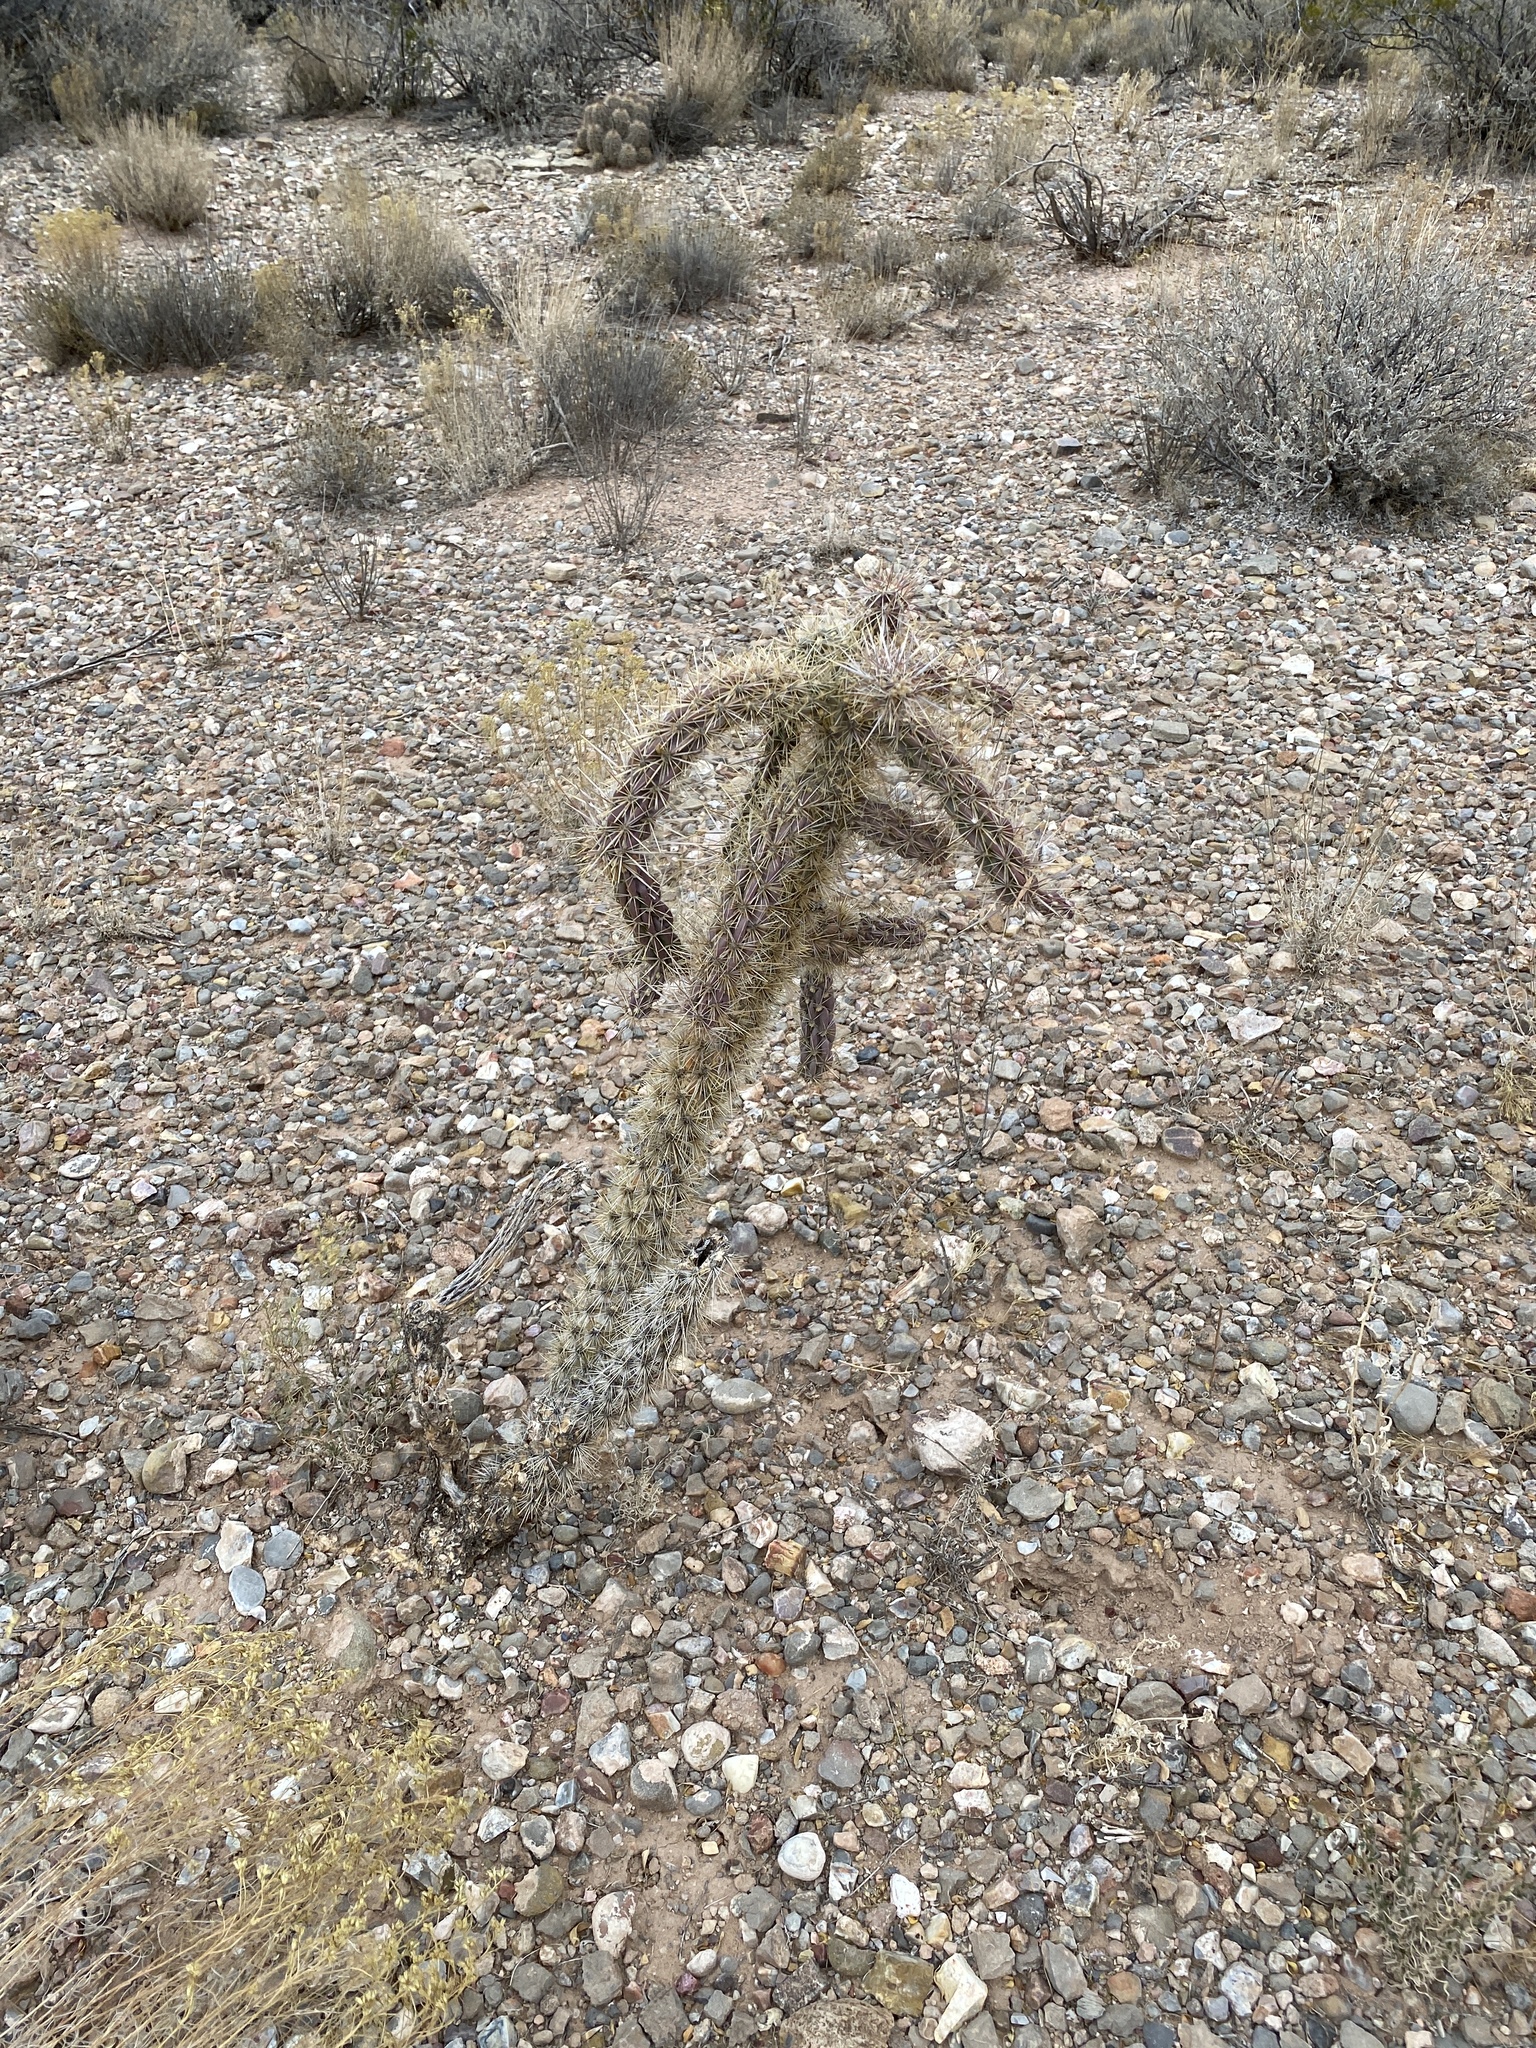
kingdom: Plantae
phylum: Tracheophyta
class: Magnoliopsida
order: Caryophyllales
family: Cactaceae
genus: Cylindropuntia
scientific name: Cylindropuntia imbricata
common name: Candelabrum cactus
